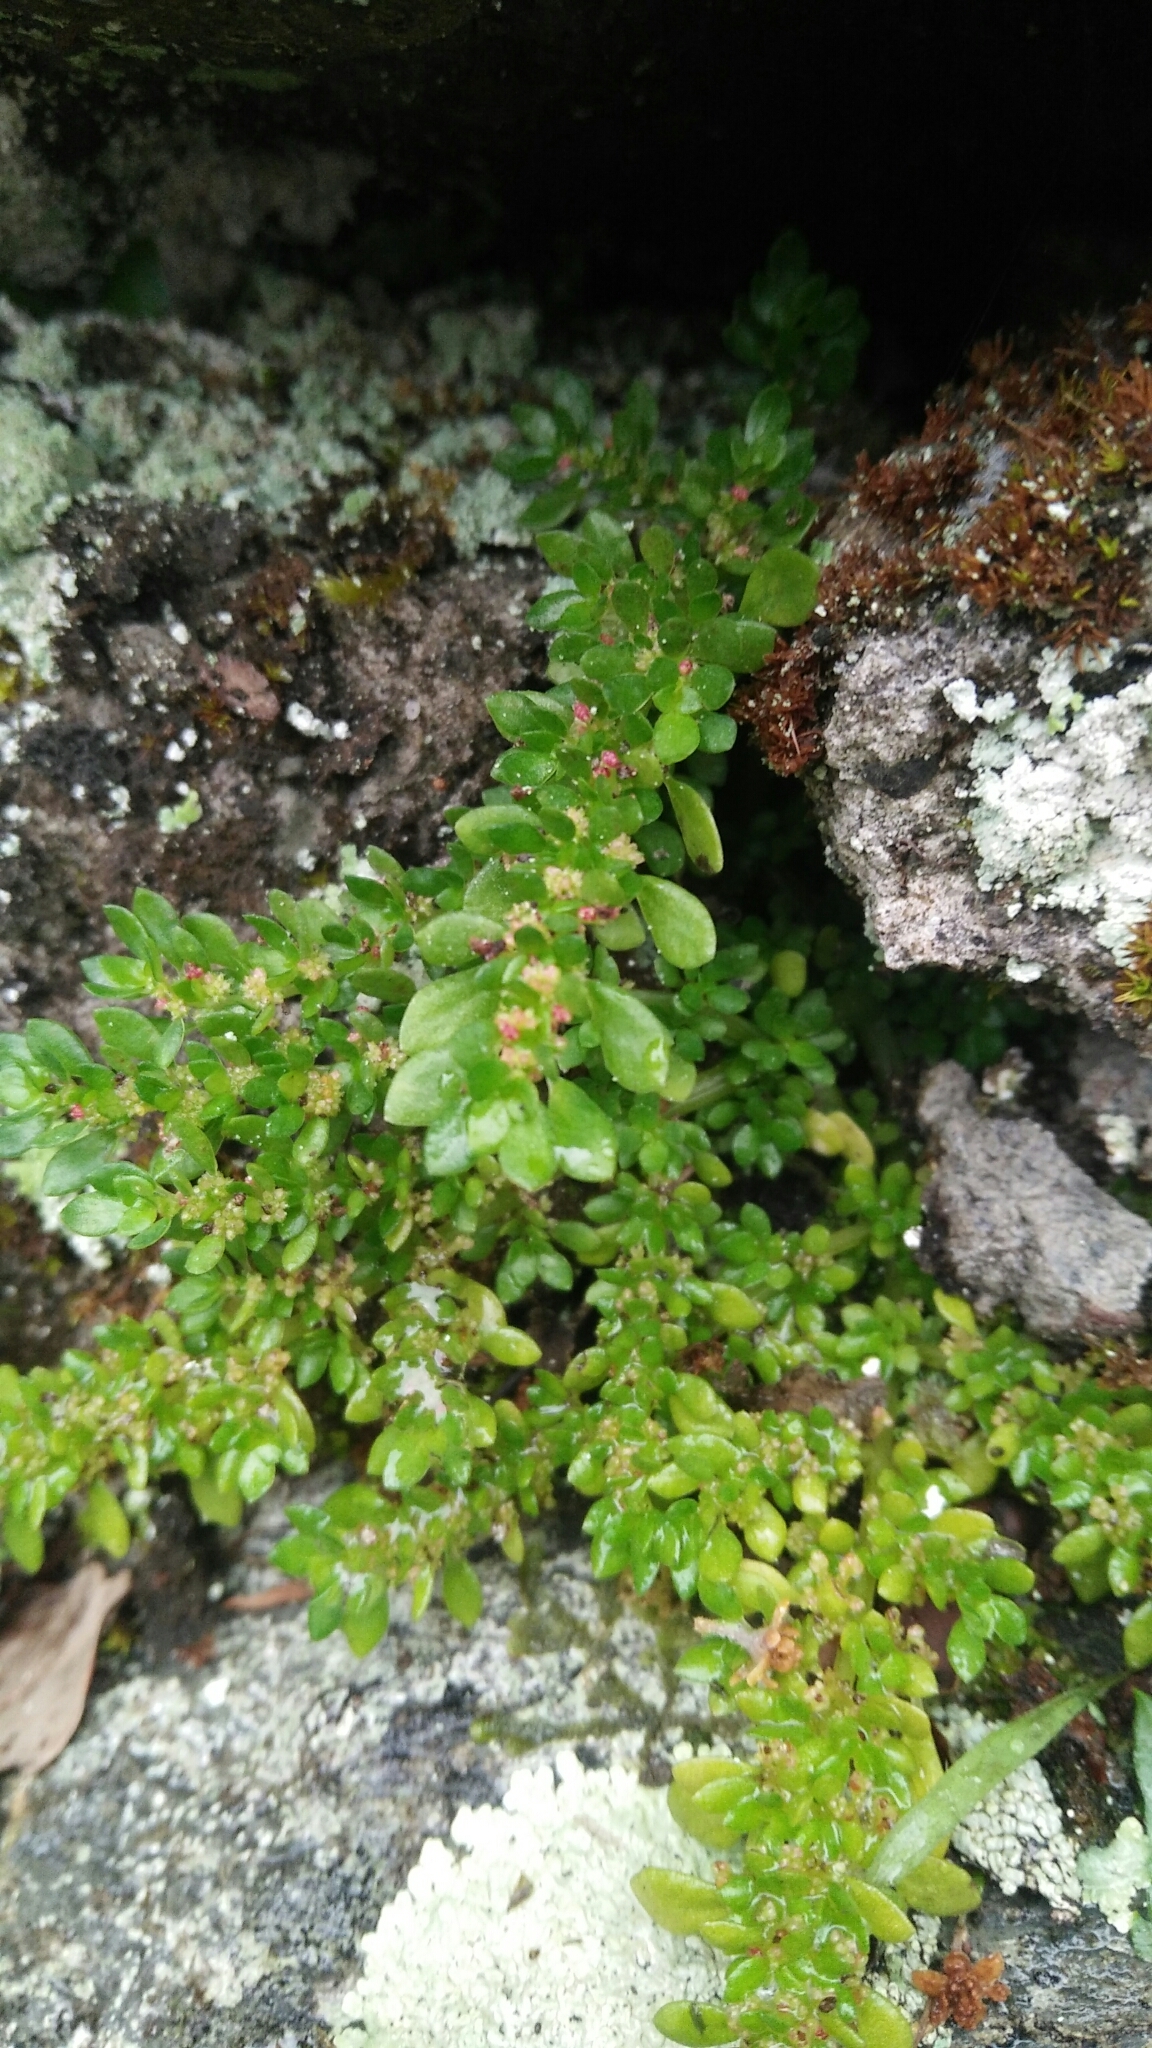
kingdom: Plantae
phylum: Tracheophyta
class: Magnoliopsida
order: Rosales
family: Urticaceae
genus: Pilea
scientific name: Pilea microphylla
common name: Artillery-plant
